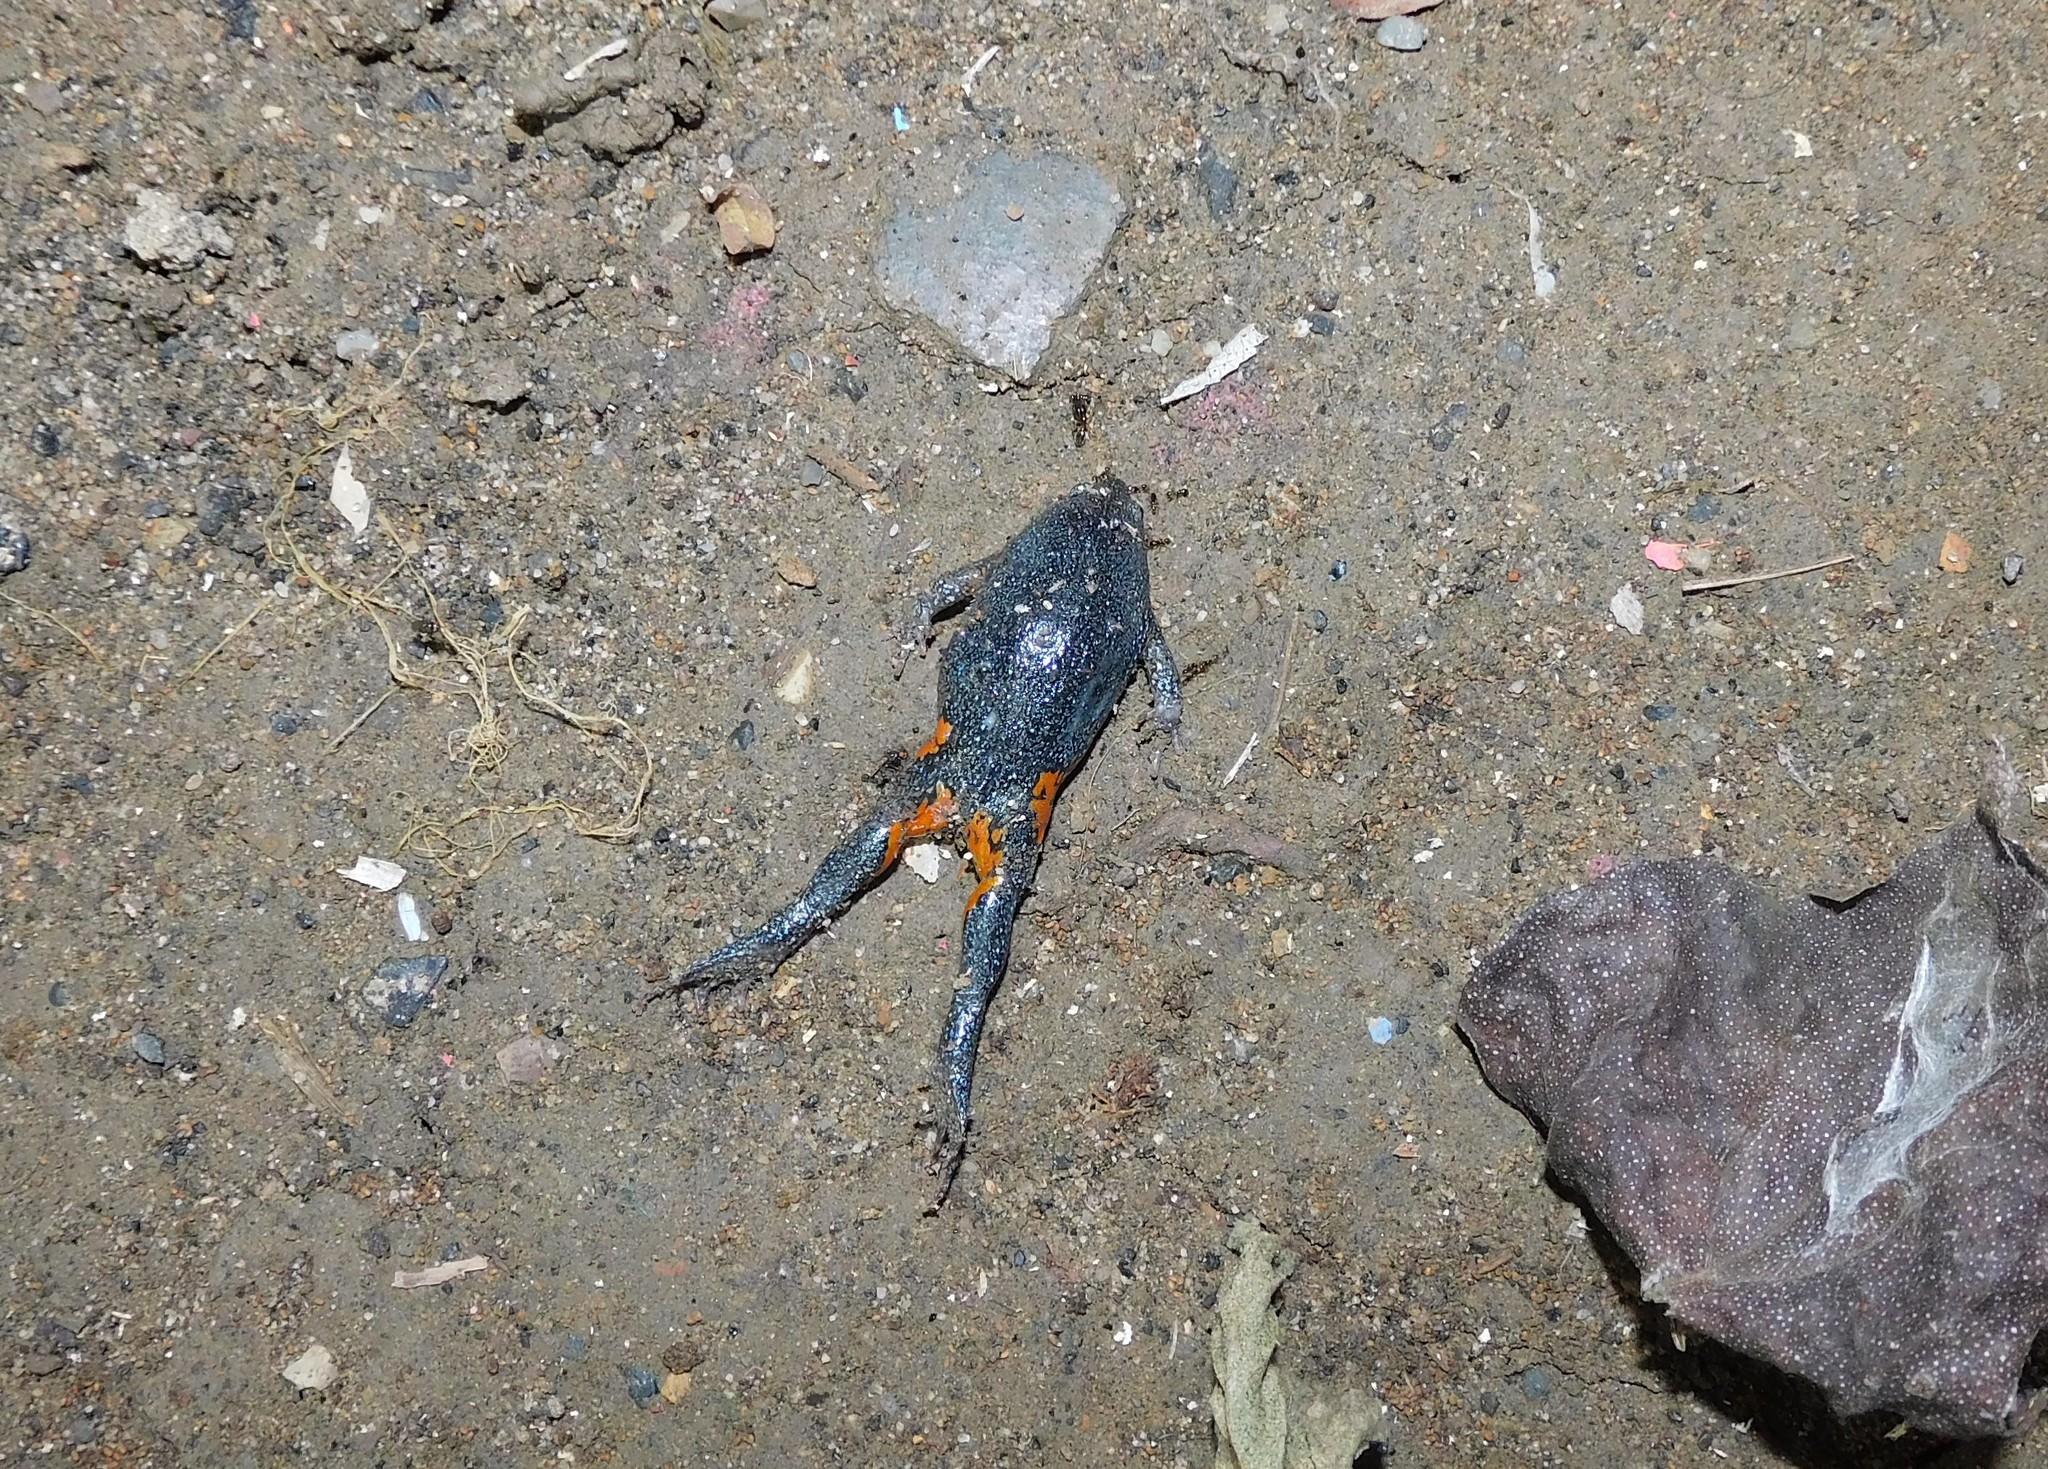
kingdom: Animalia
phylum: Chordata
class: Amphibia
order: Anura
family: Microhylidae
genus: Elachistocleis
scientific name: Elachistocleis pearsei
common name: Colombian plump frog
